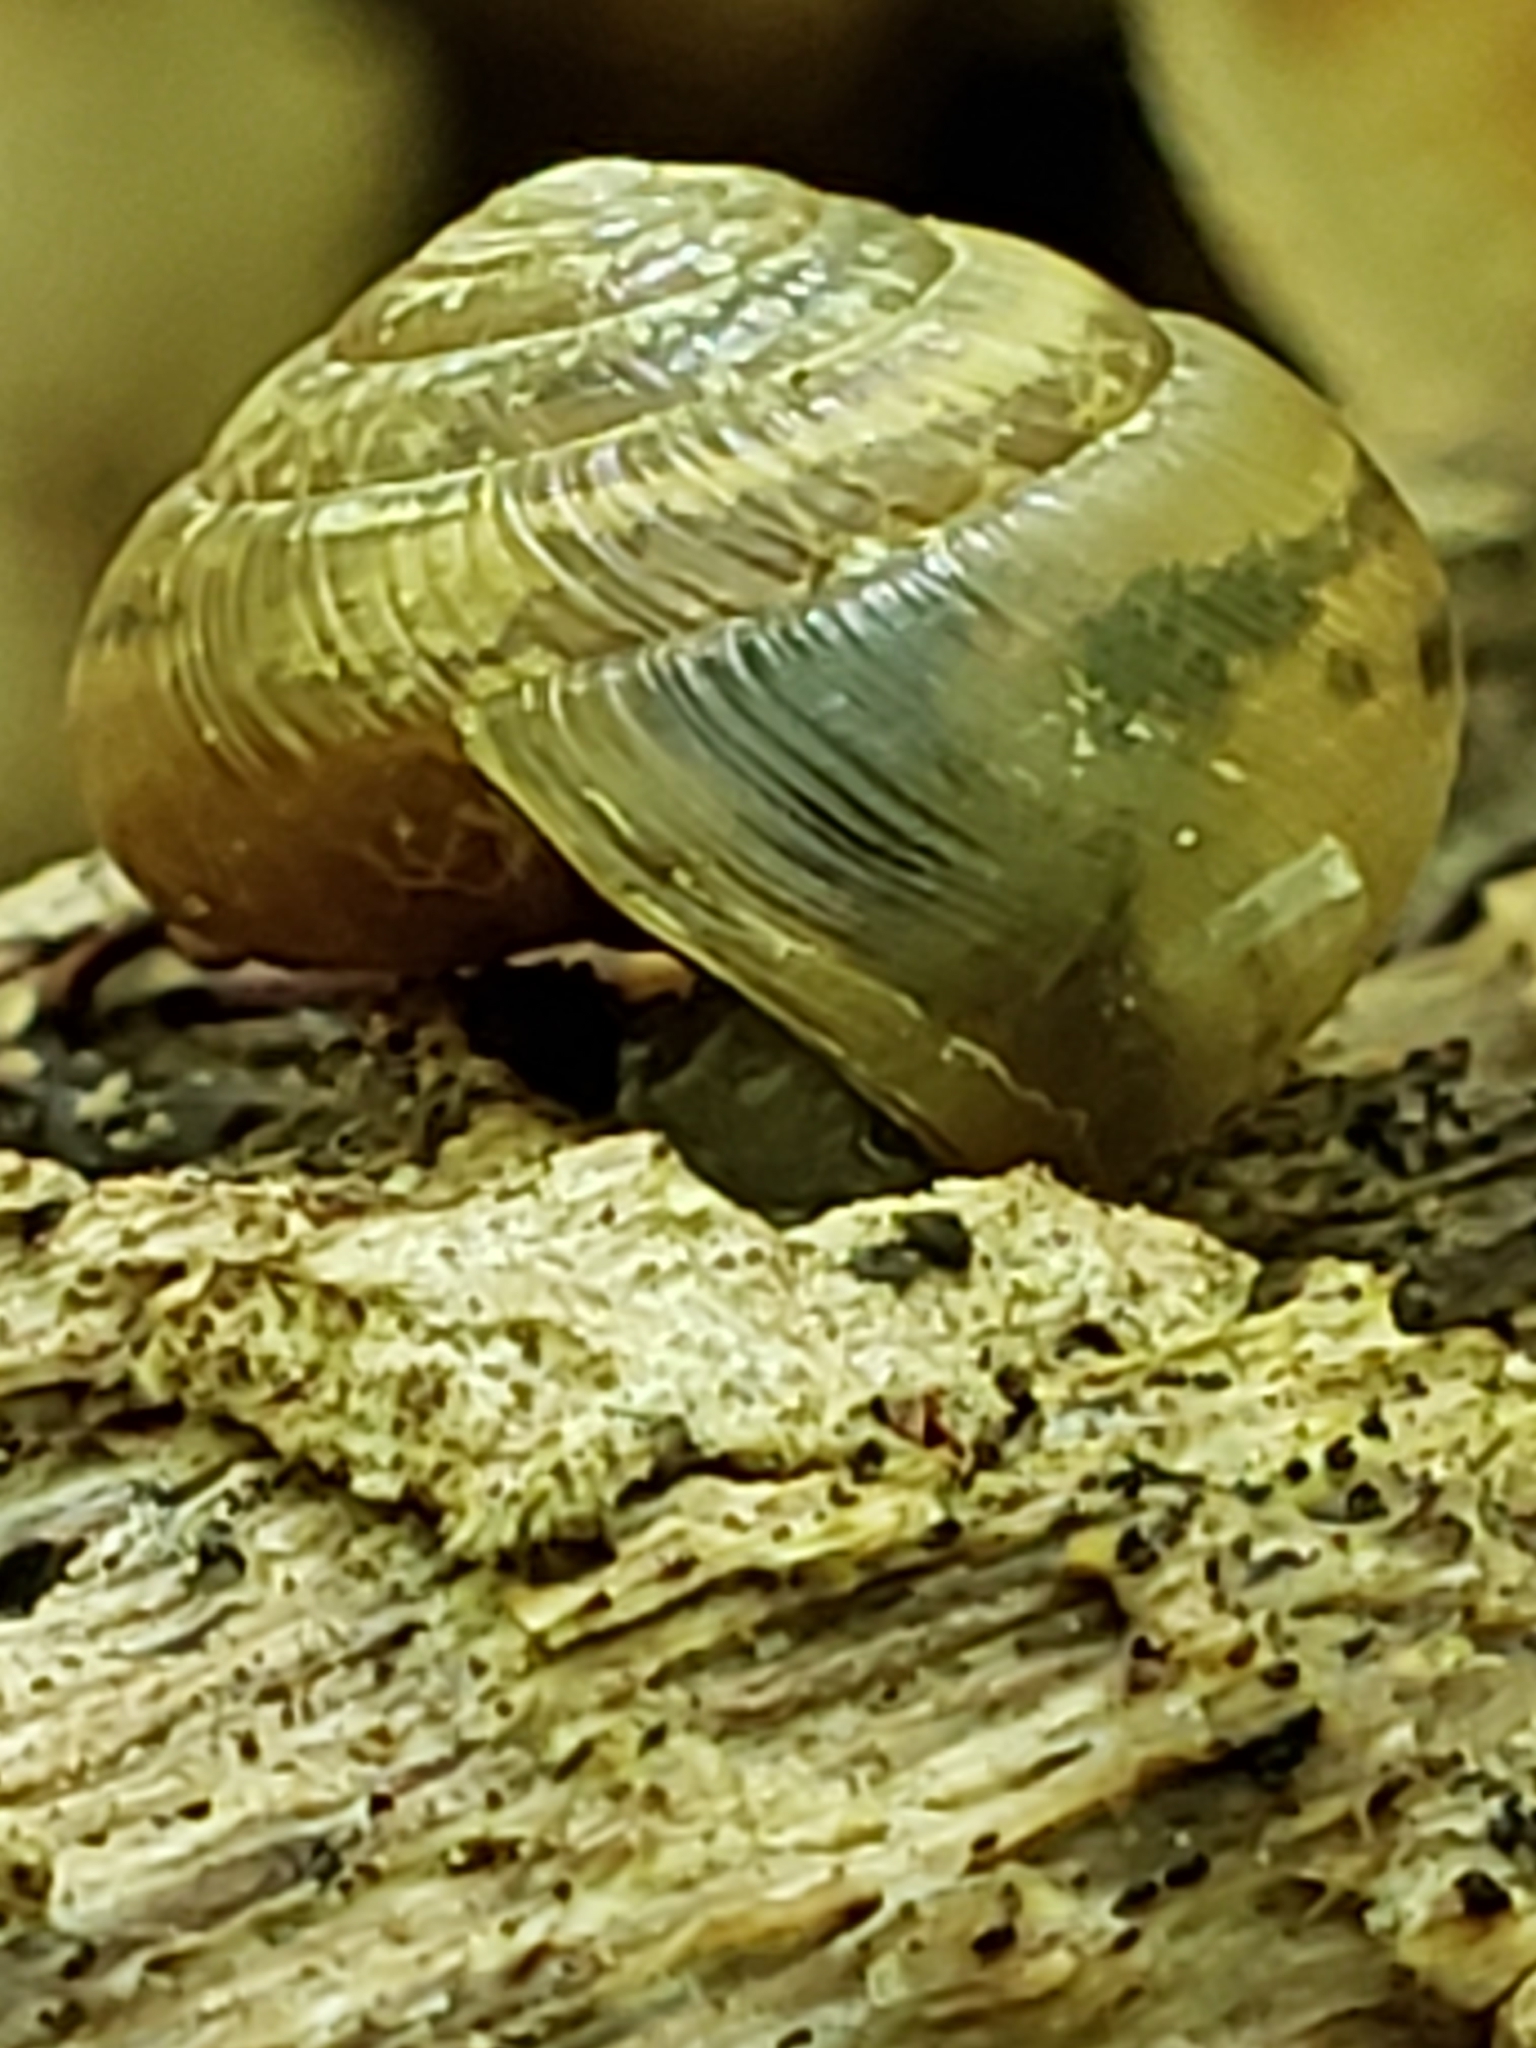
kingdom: Animalia
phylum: Mollusca
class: Gastropoda
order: Stylommatophora
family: Gastrodontidae
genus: Ventridens
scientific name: Ventridens ligera
